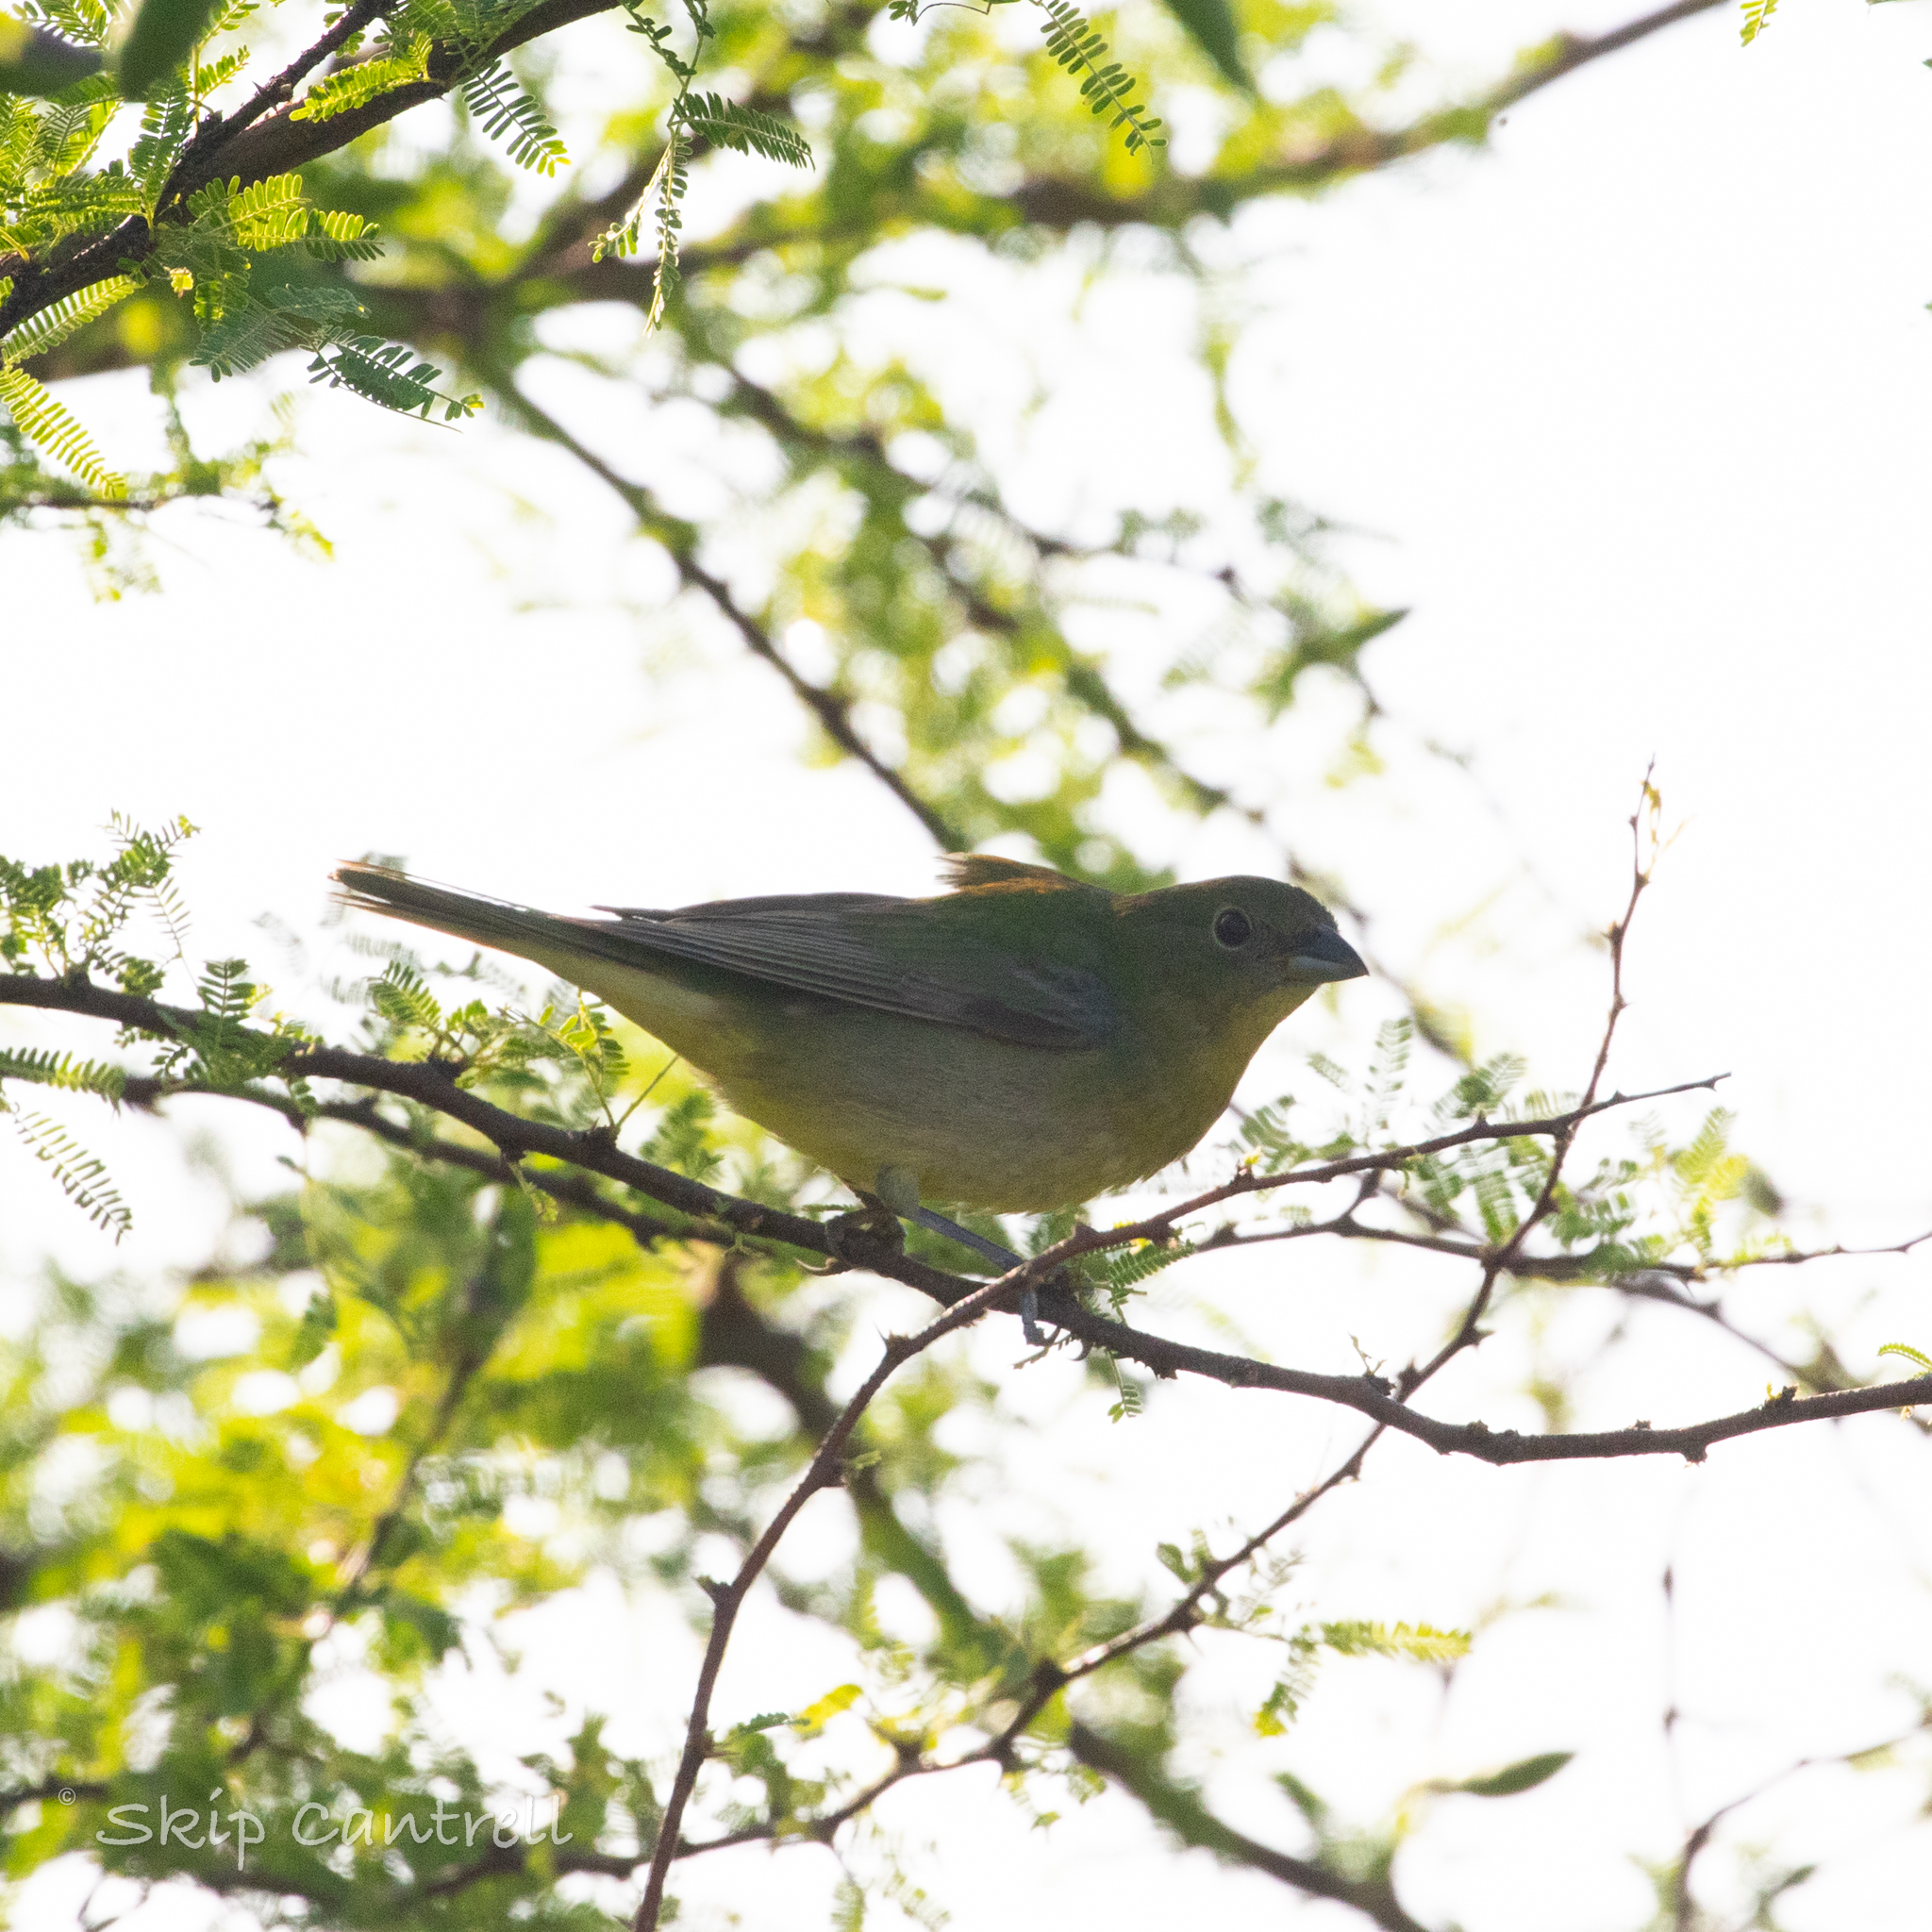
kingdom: Animalia
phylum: Chordata
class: Aves
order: Passeriformes
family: Cardinalidae
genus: Passerina
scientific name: Passerina ciris
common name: Painted bunting
